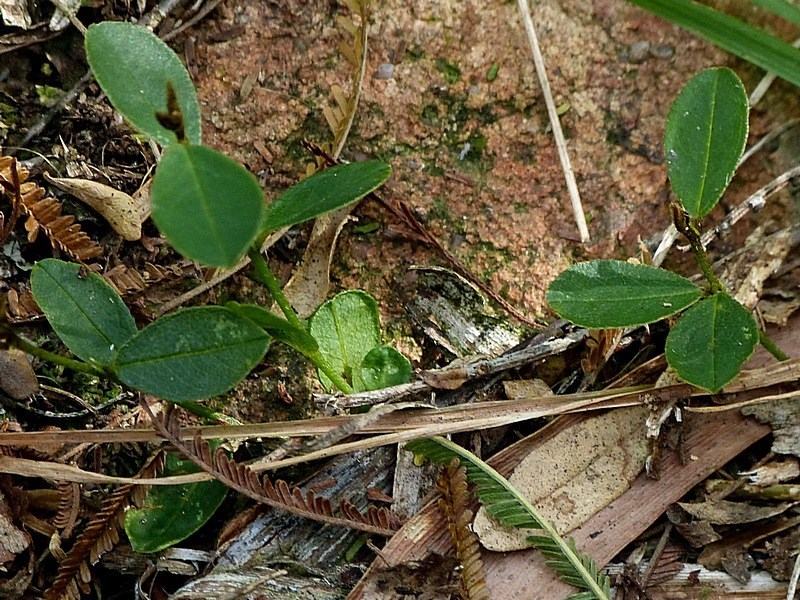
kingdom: Plantae
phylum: Tracheophyta
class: Magnoliopsida
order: Fabales
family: Fabaceae
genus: Hovea
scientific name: Hovea heterophylla
